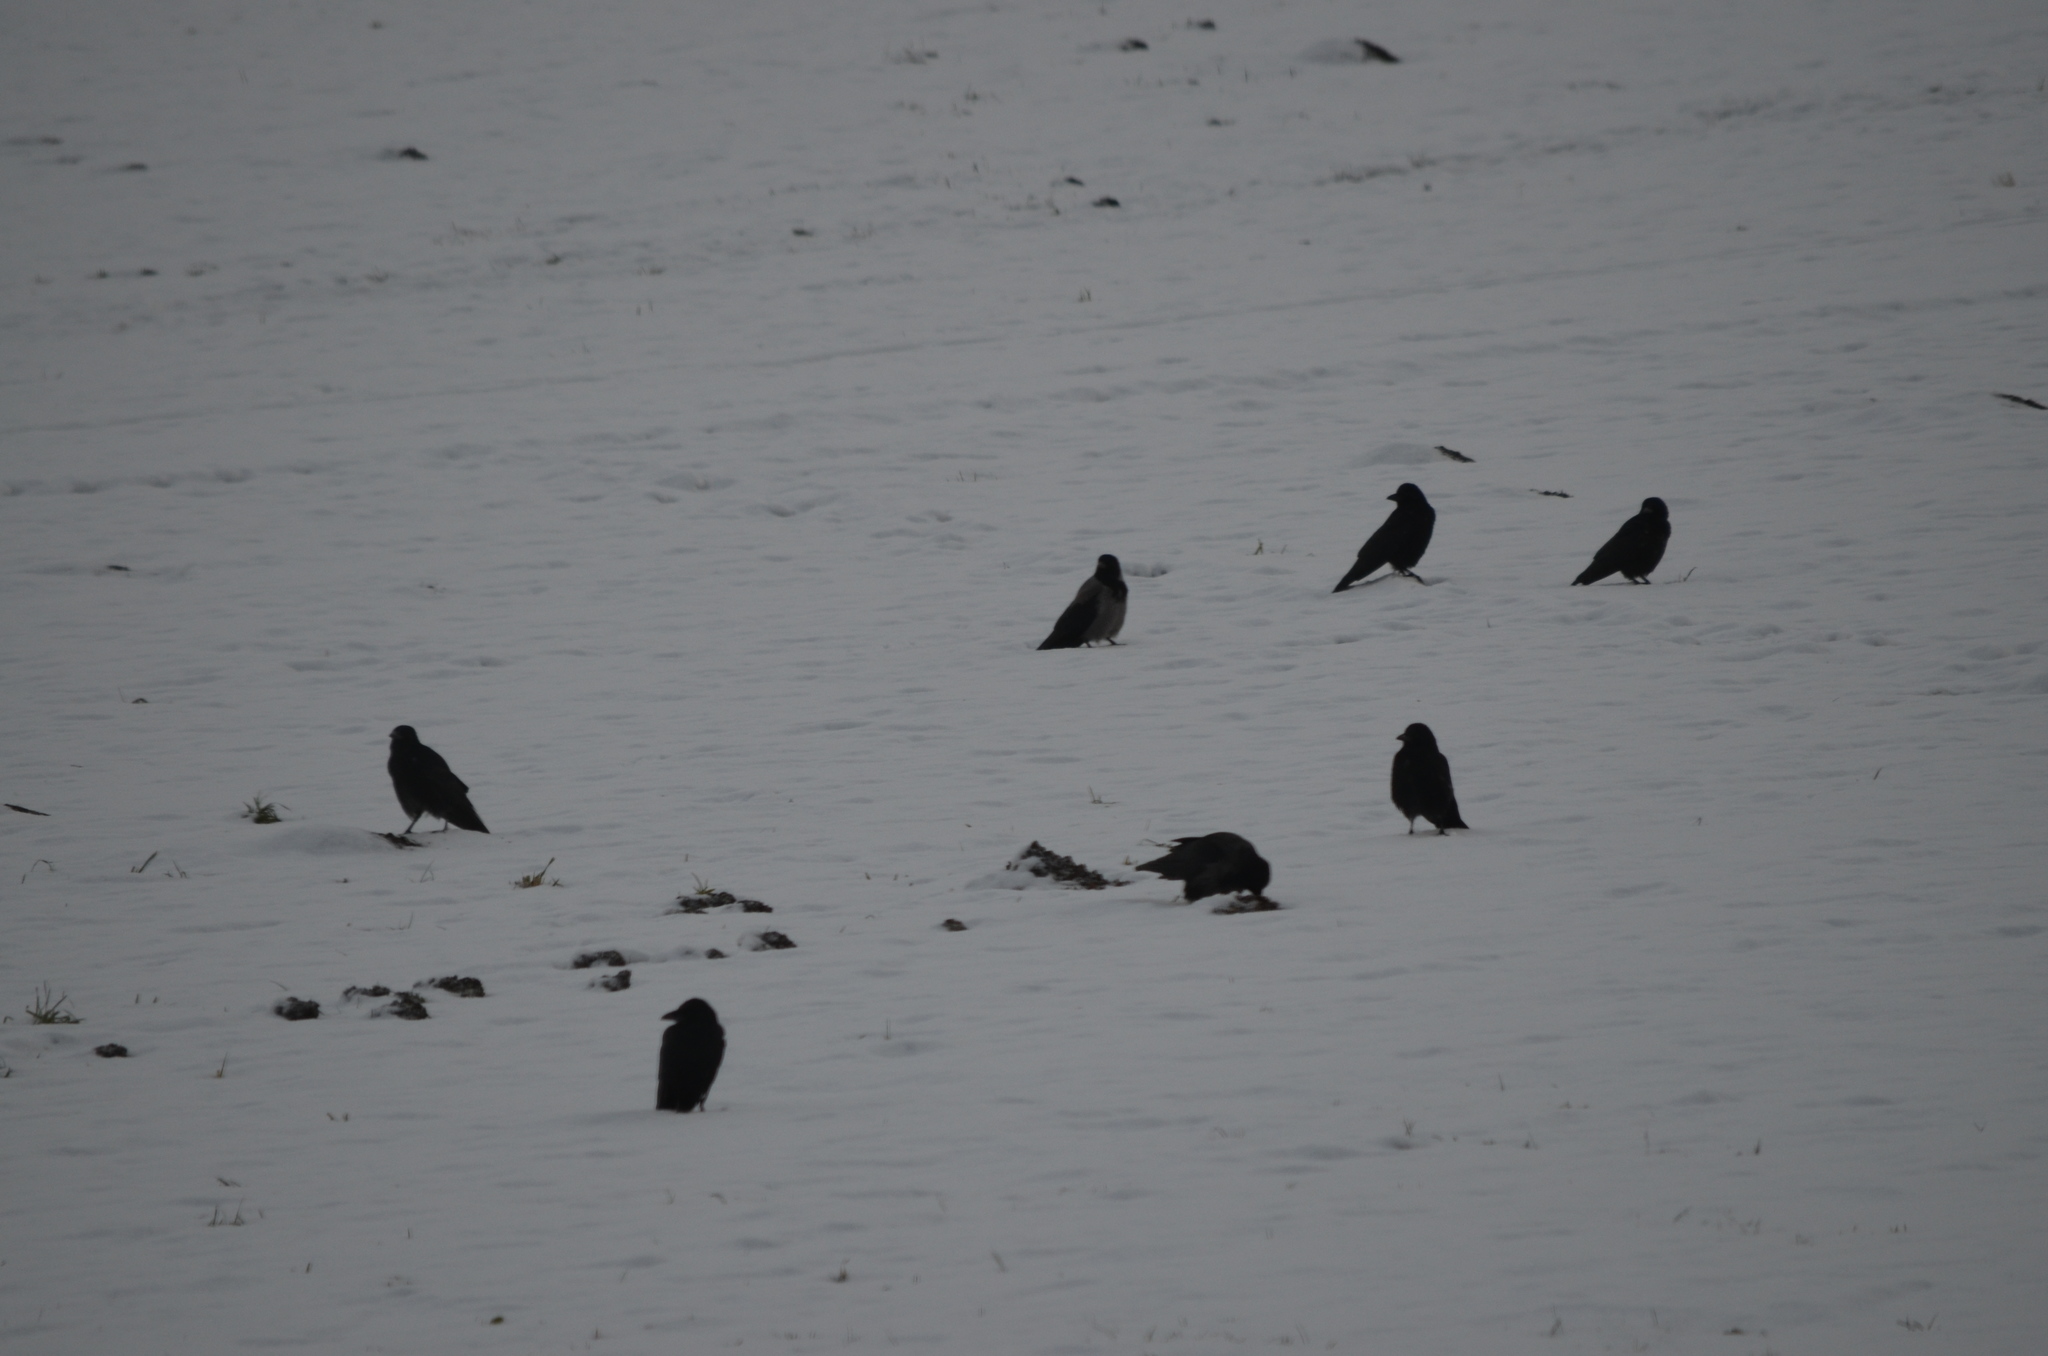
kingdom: Animalia
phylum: Chordata
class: Aves
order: Passeriformes
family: Corvidae
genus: Corvus
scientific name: Corvus corone
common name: Carrion crow
